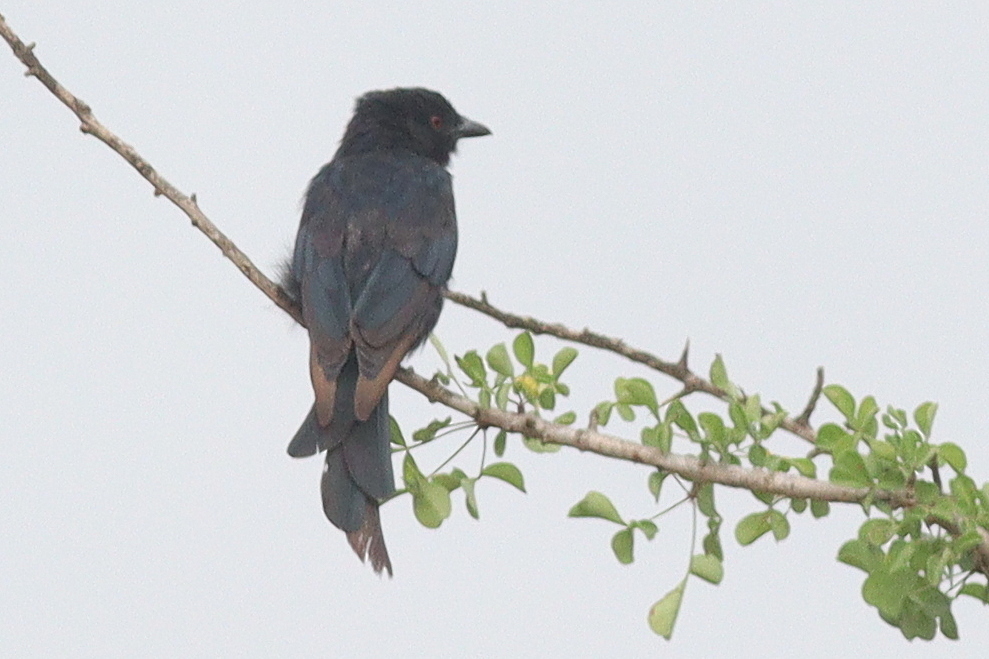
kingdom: Animalia
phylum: Chordata
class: Aves
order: Passeriformes
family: Dicruridae
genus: Dicrurus
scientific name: Dicrurus adsimilis
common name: Fork-tailed drongo
